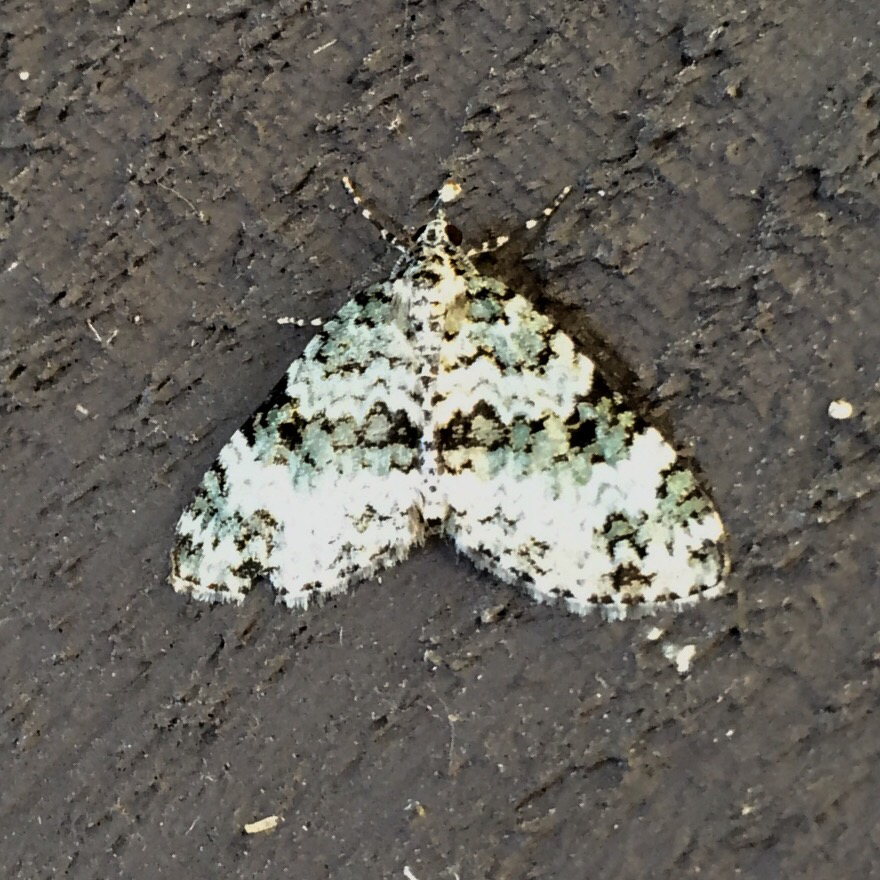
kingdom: Animalia
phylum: Arthropoda
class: Insecta
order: Lepidoptera
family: Geometridae
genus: Spargania
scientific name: Spargania magnoliata
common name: Double-banded carpet
